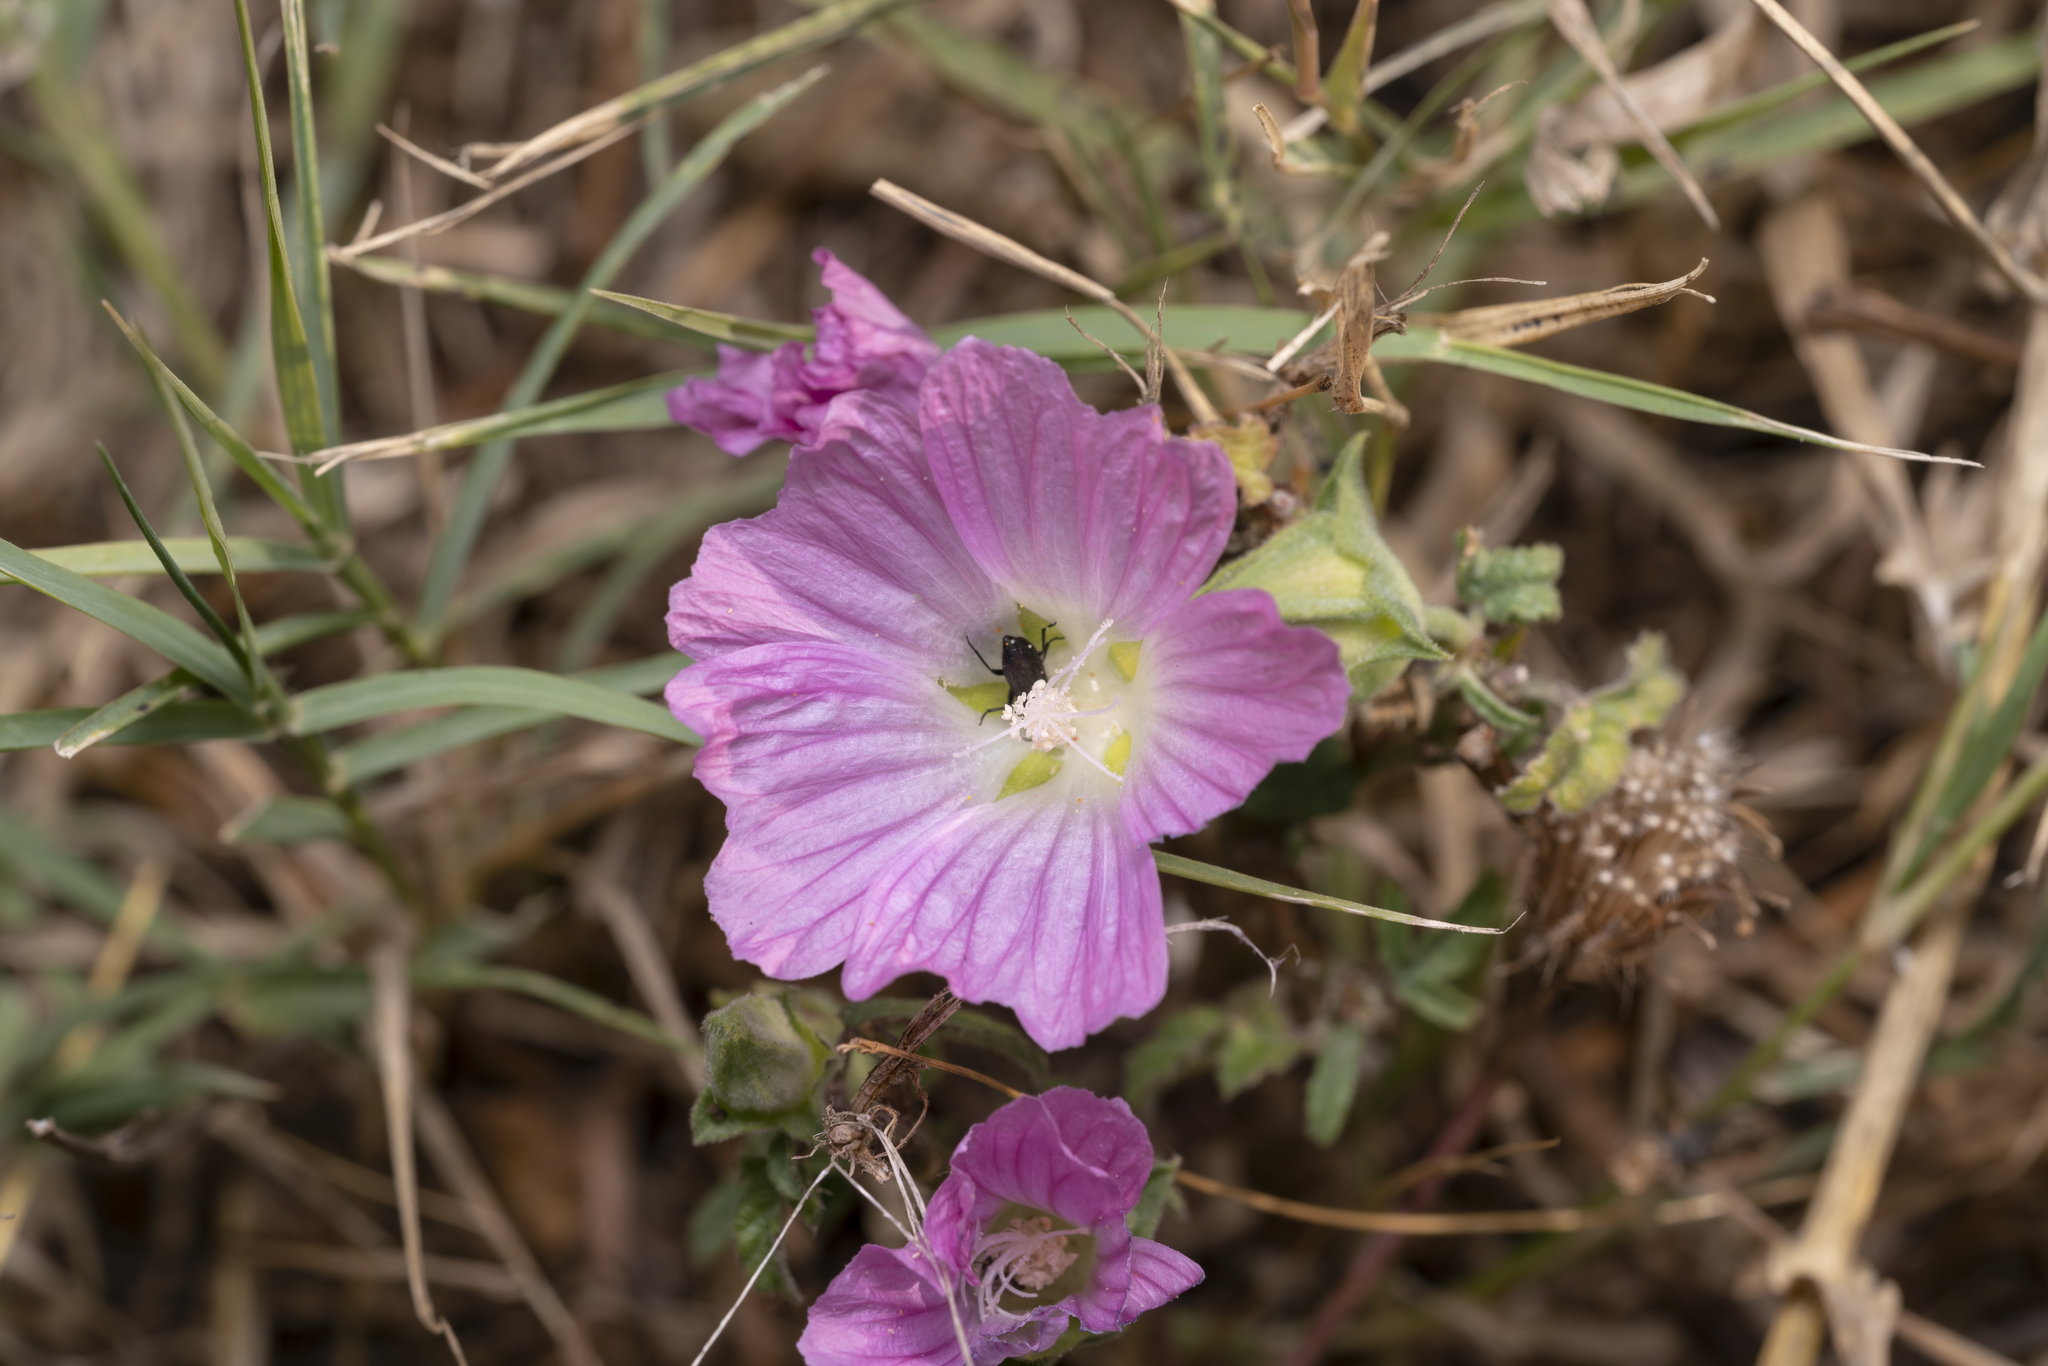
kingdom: Plantae
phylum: Tracheophyta
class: Magnoliopsida
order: Malvales
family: Malvaceae
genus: Malva
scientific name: Malva punctata
